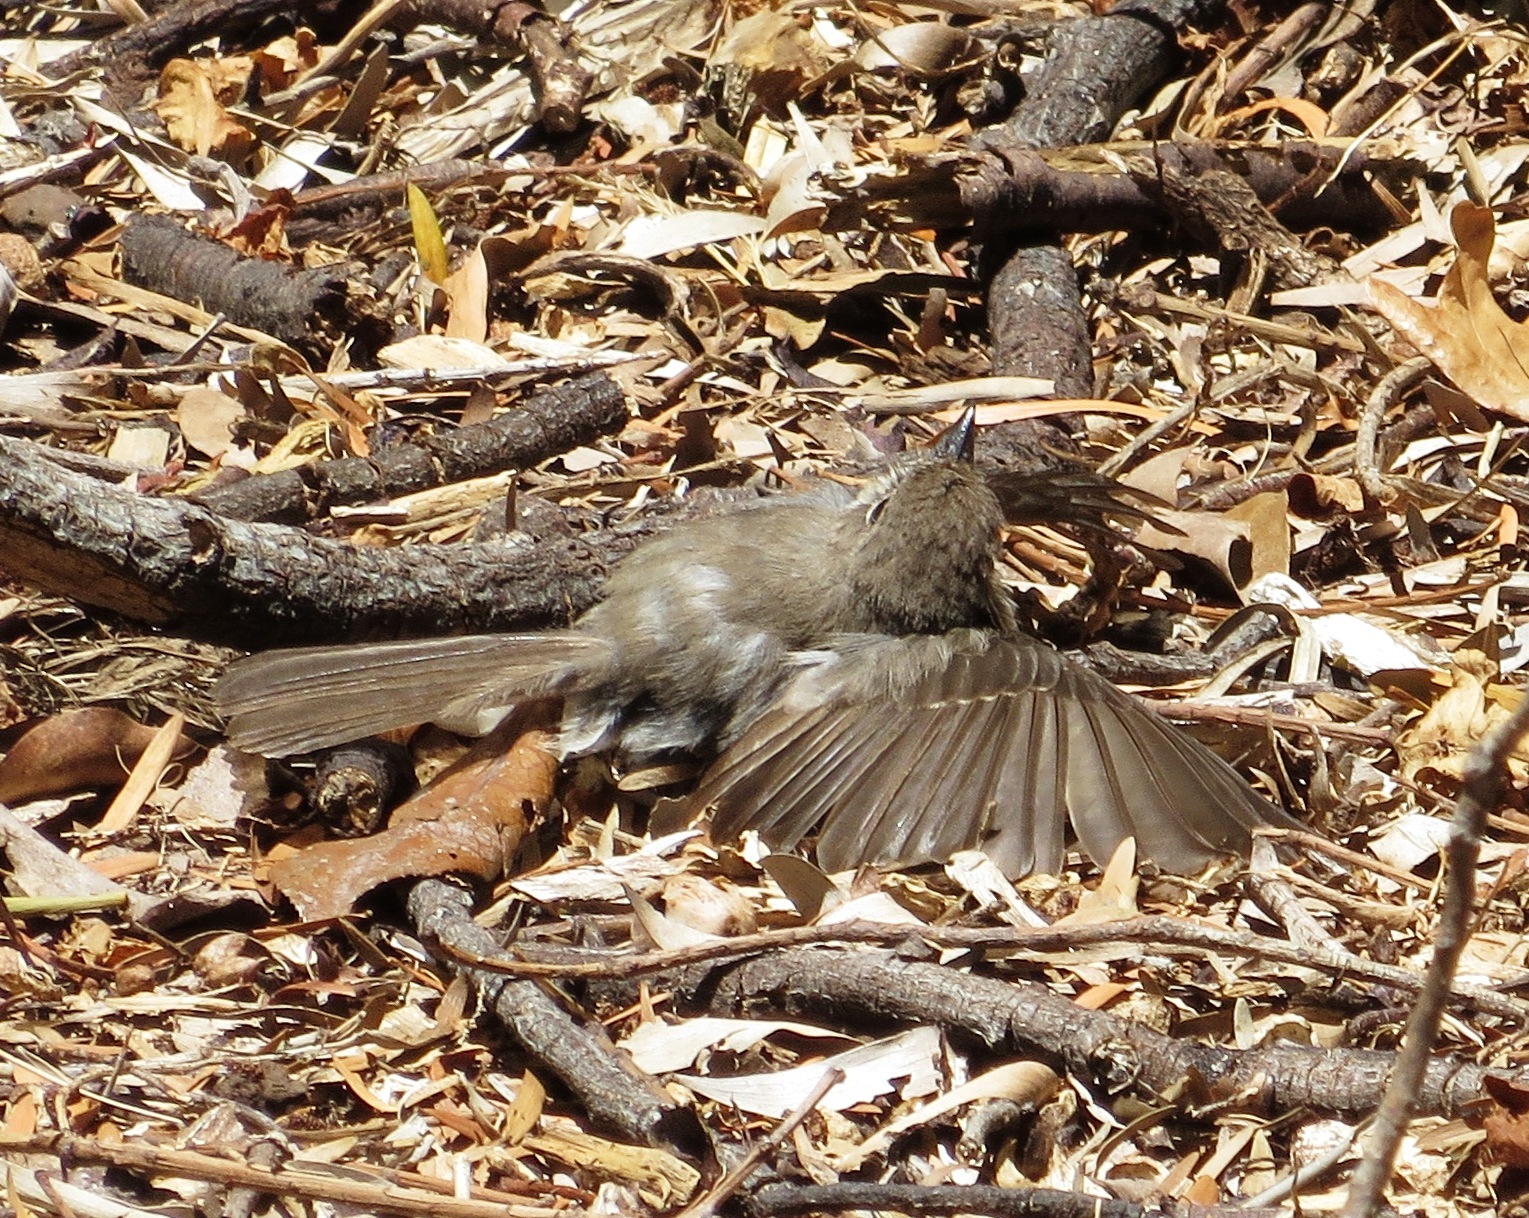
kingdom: Animalia
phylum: Chordata
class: Aves
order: Passeriformes
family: Muscicapidae
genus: Muscicapa
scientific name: Muscicapa adusta
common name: African dusky flycatcher
